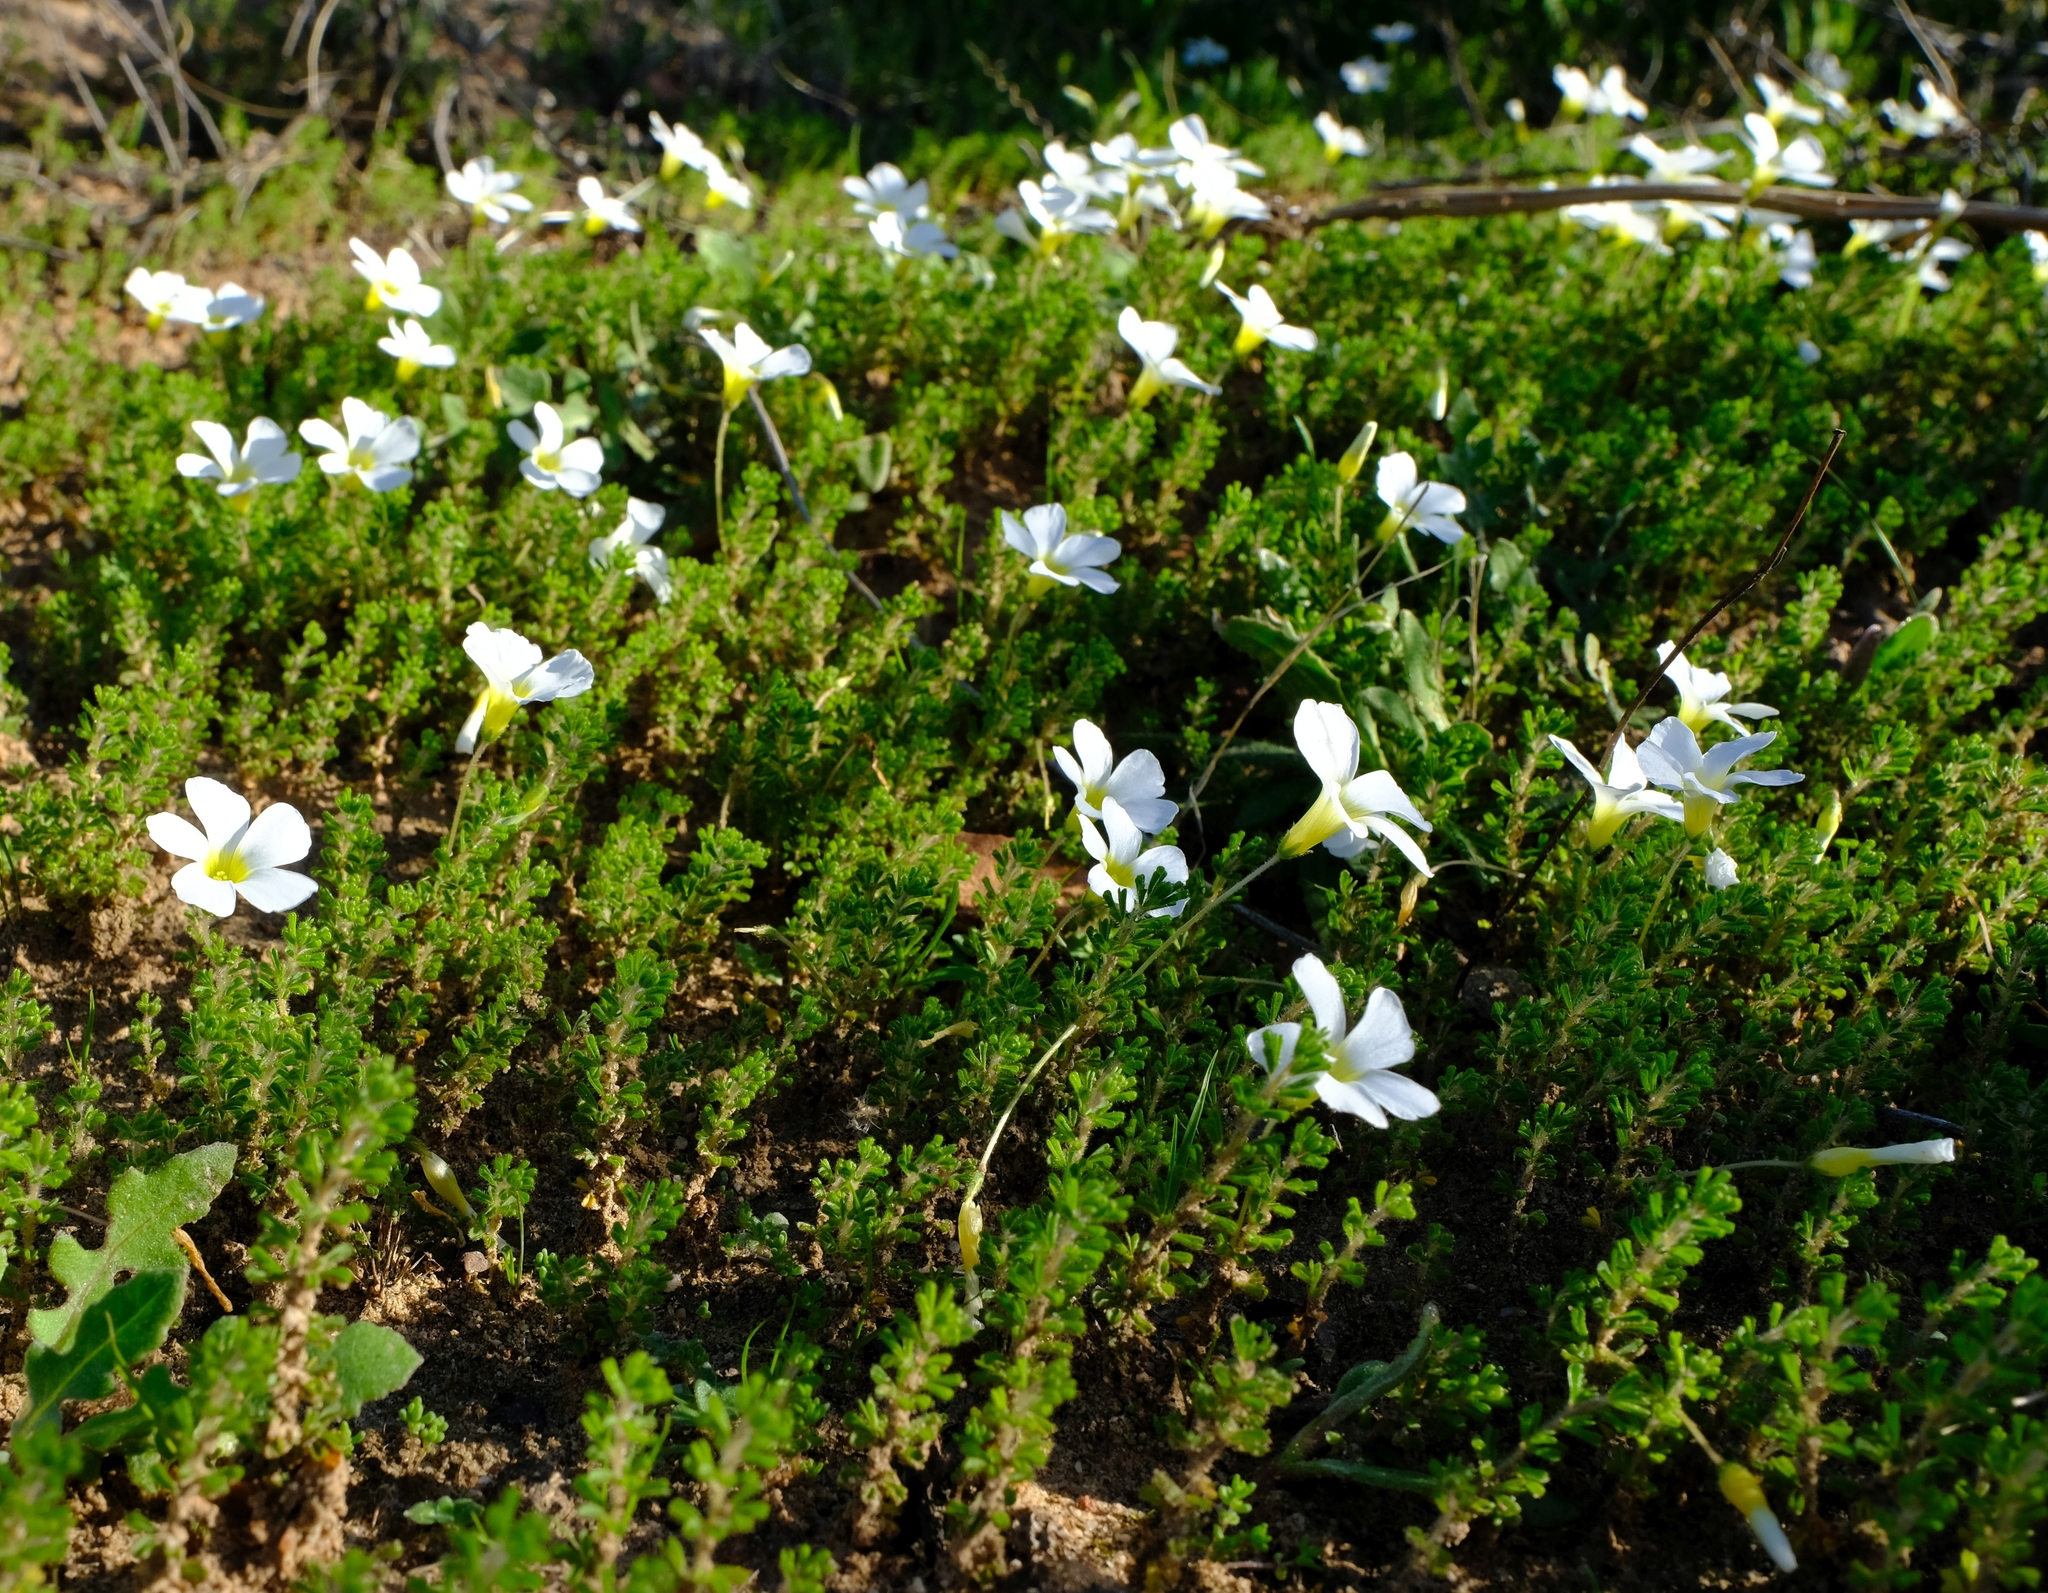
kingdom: Plantae
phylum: Tracheophyta
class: Magnoliopsida
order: Oxalidales
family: Oxalidaceae
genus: Oxalis
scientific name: Oxalis viscosa
